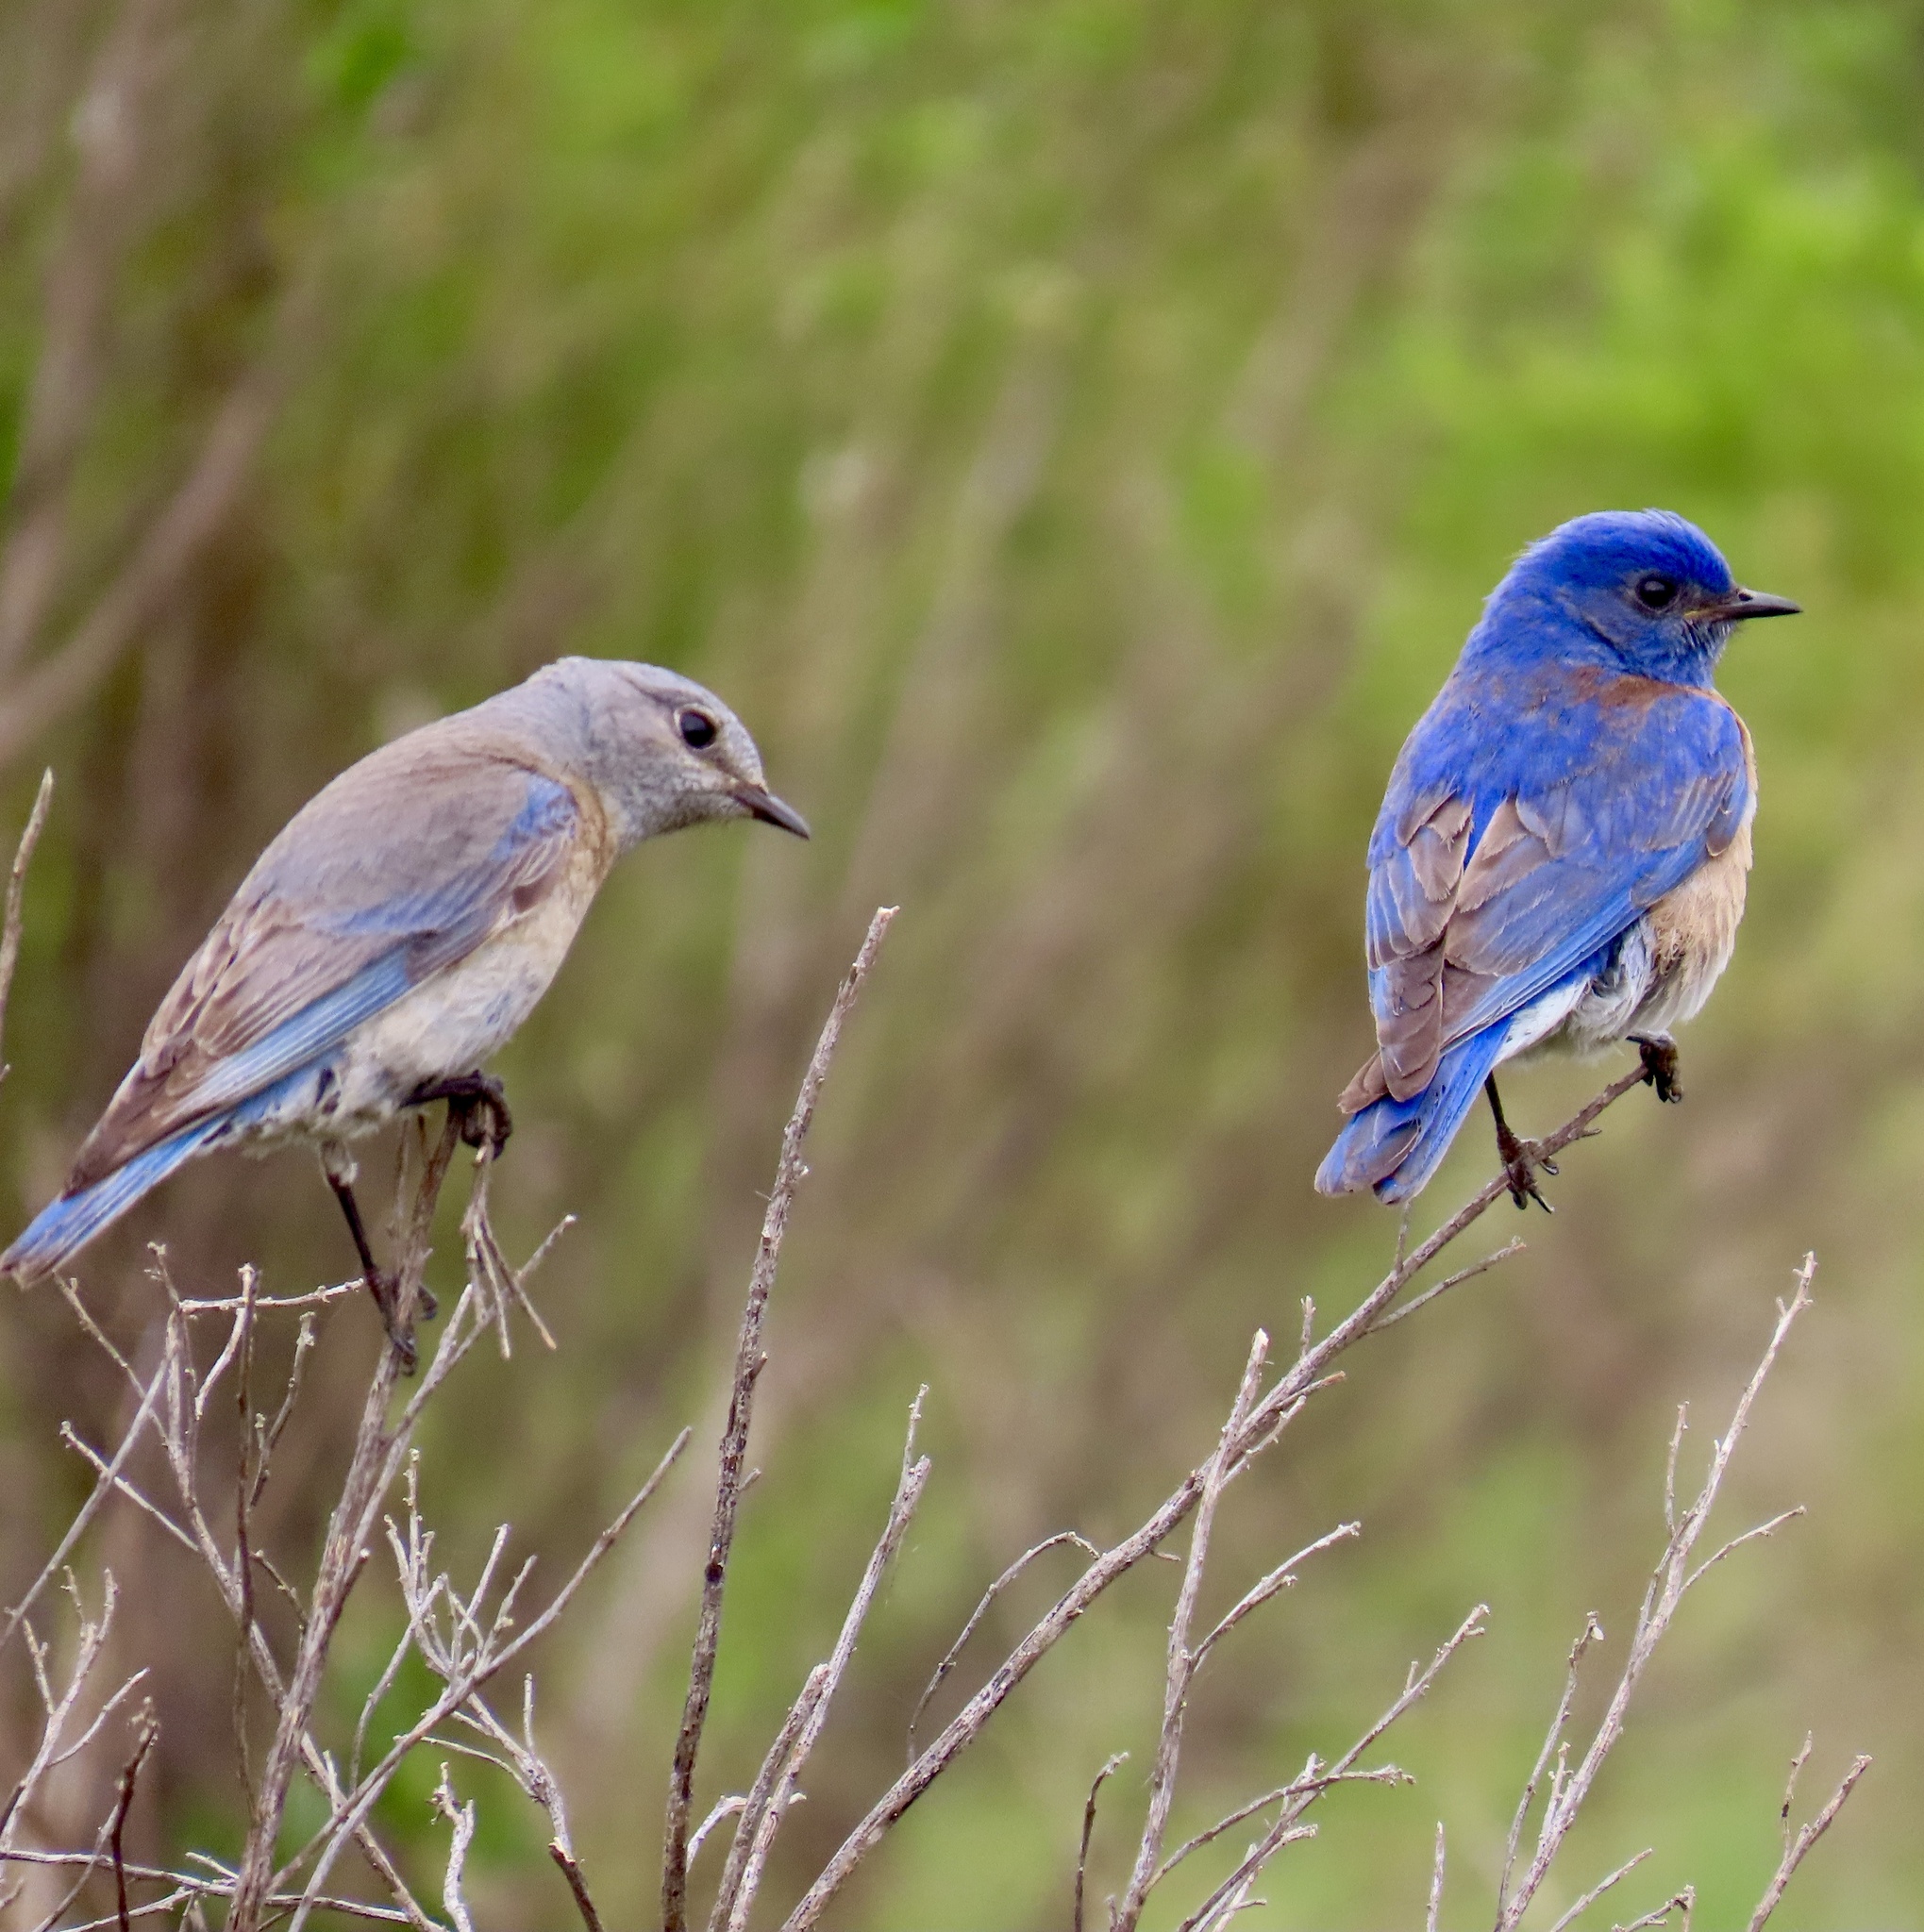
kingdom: Animalia
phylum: Chordata
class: Aves
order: Passeriformes
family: Turdidae
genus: Sialia
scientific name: Sialia mexicana
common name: Western bluebird
